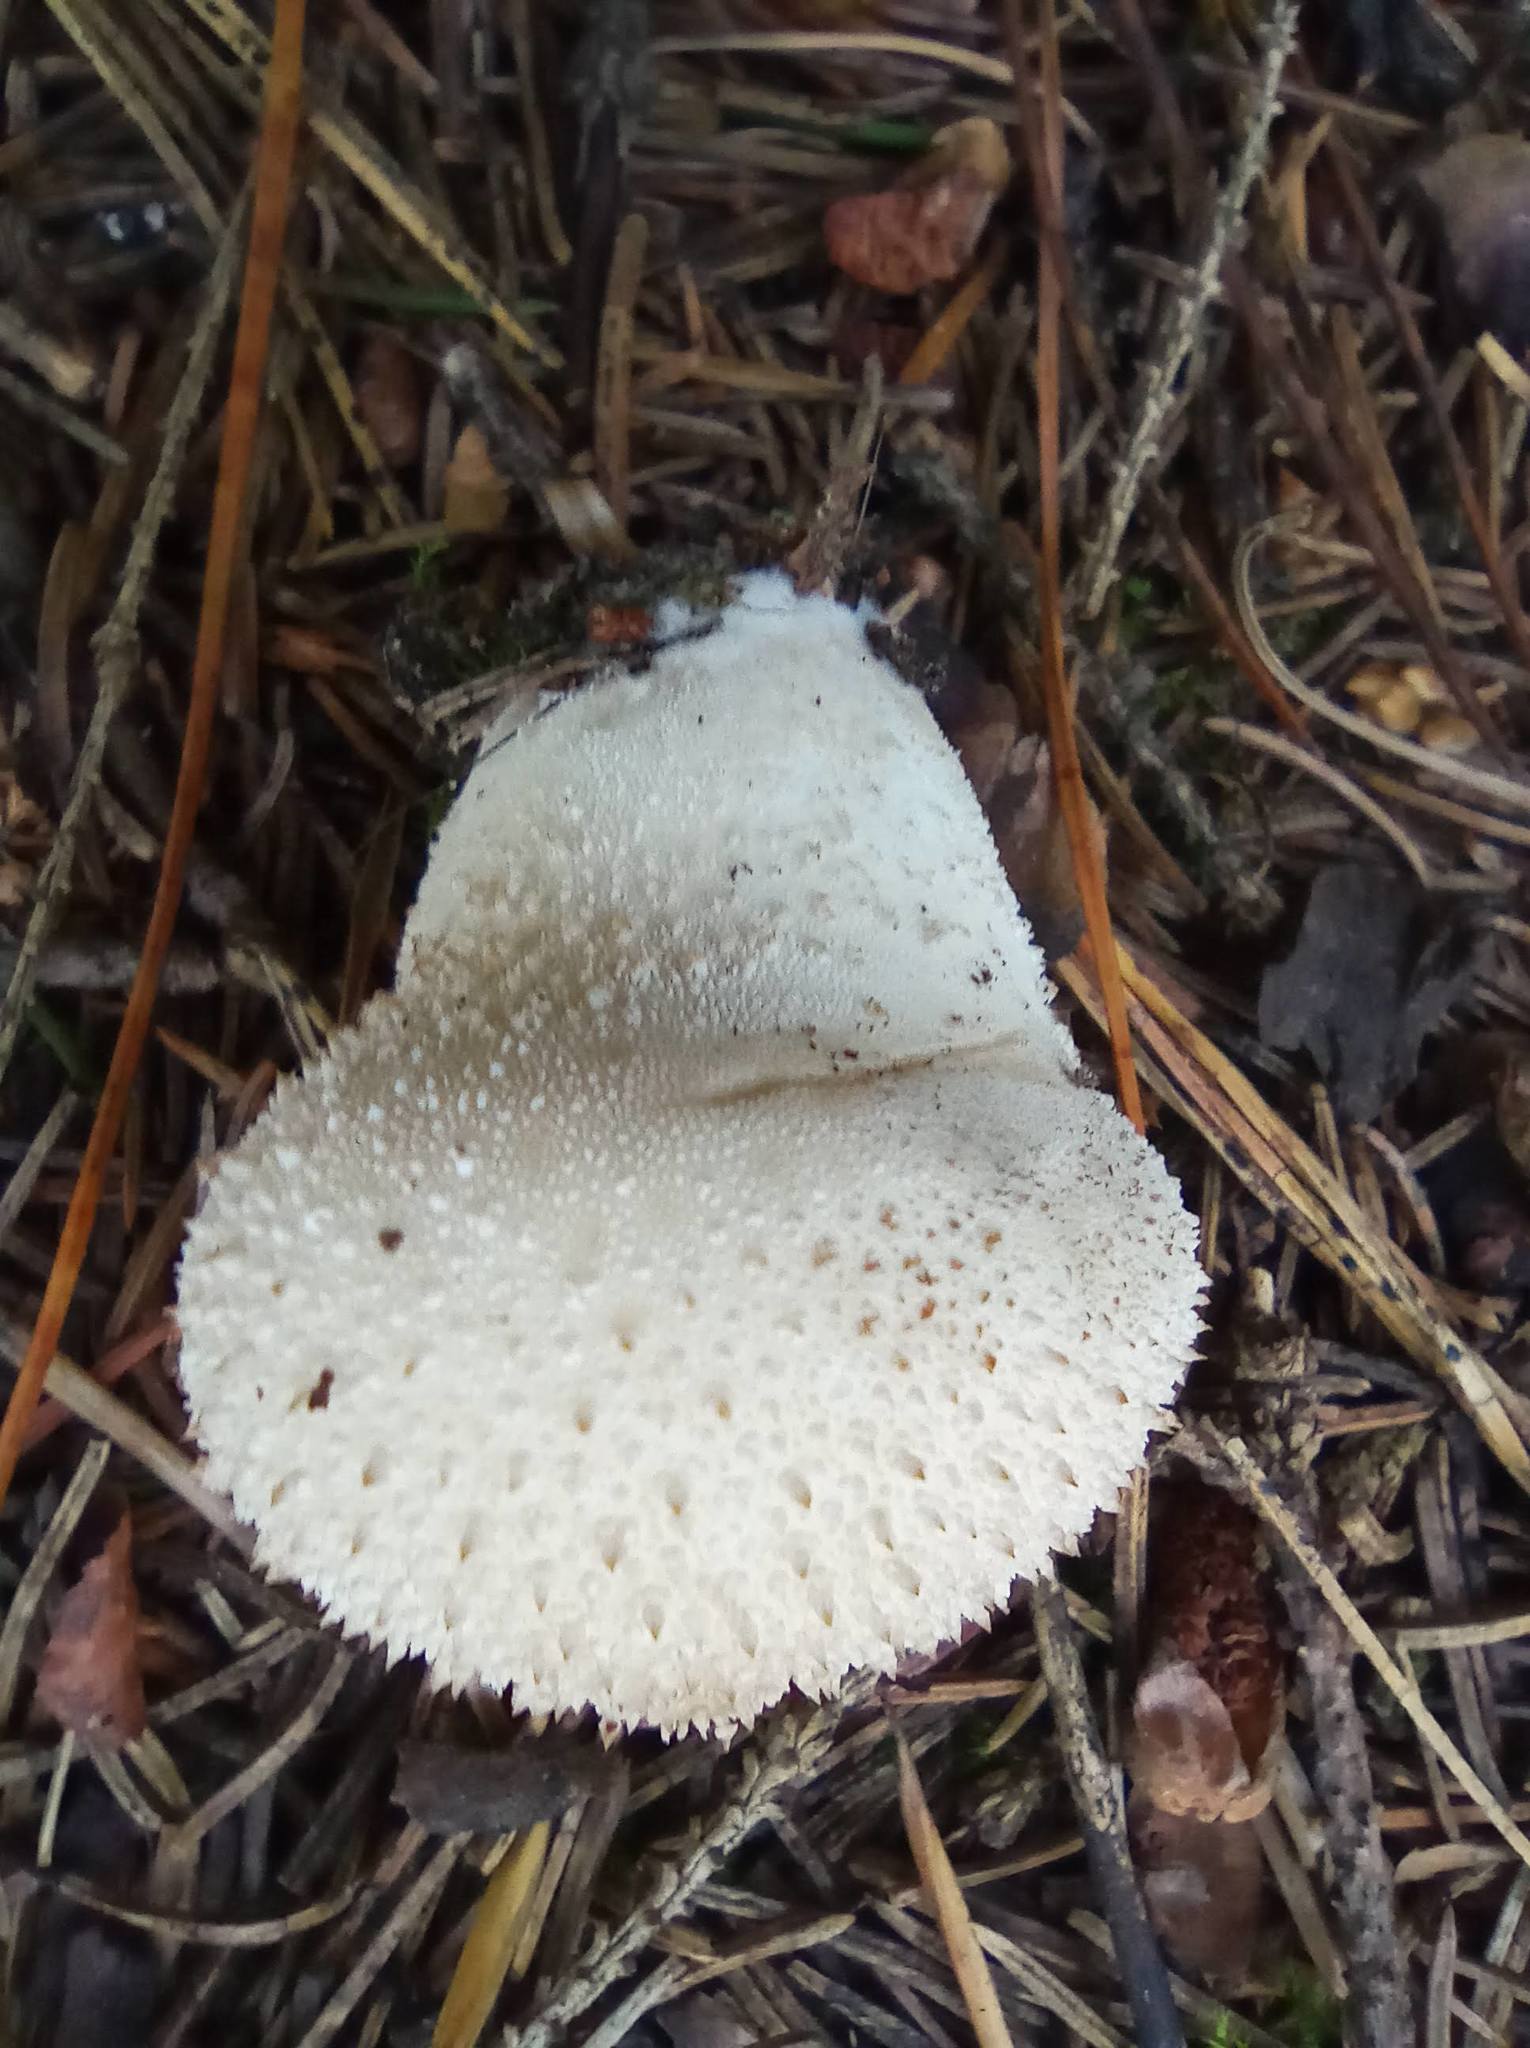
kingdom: Fungi
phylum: Basidiomycota
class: Agaricomycetes
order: Agaricales
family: Lycoperdaceae
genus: Lycoperdon
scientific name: Lycoperdon perlatum
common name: Common puffball
